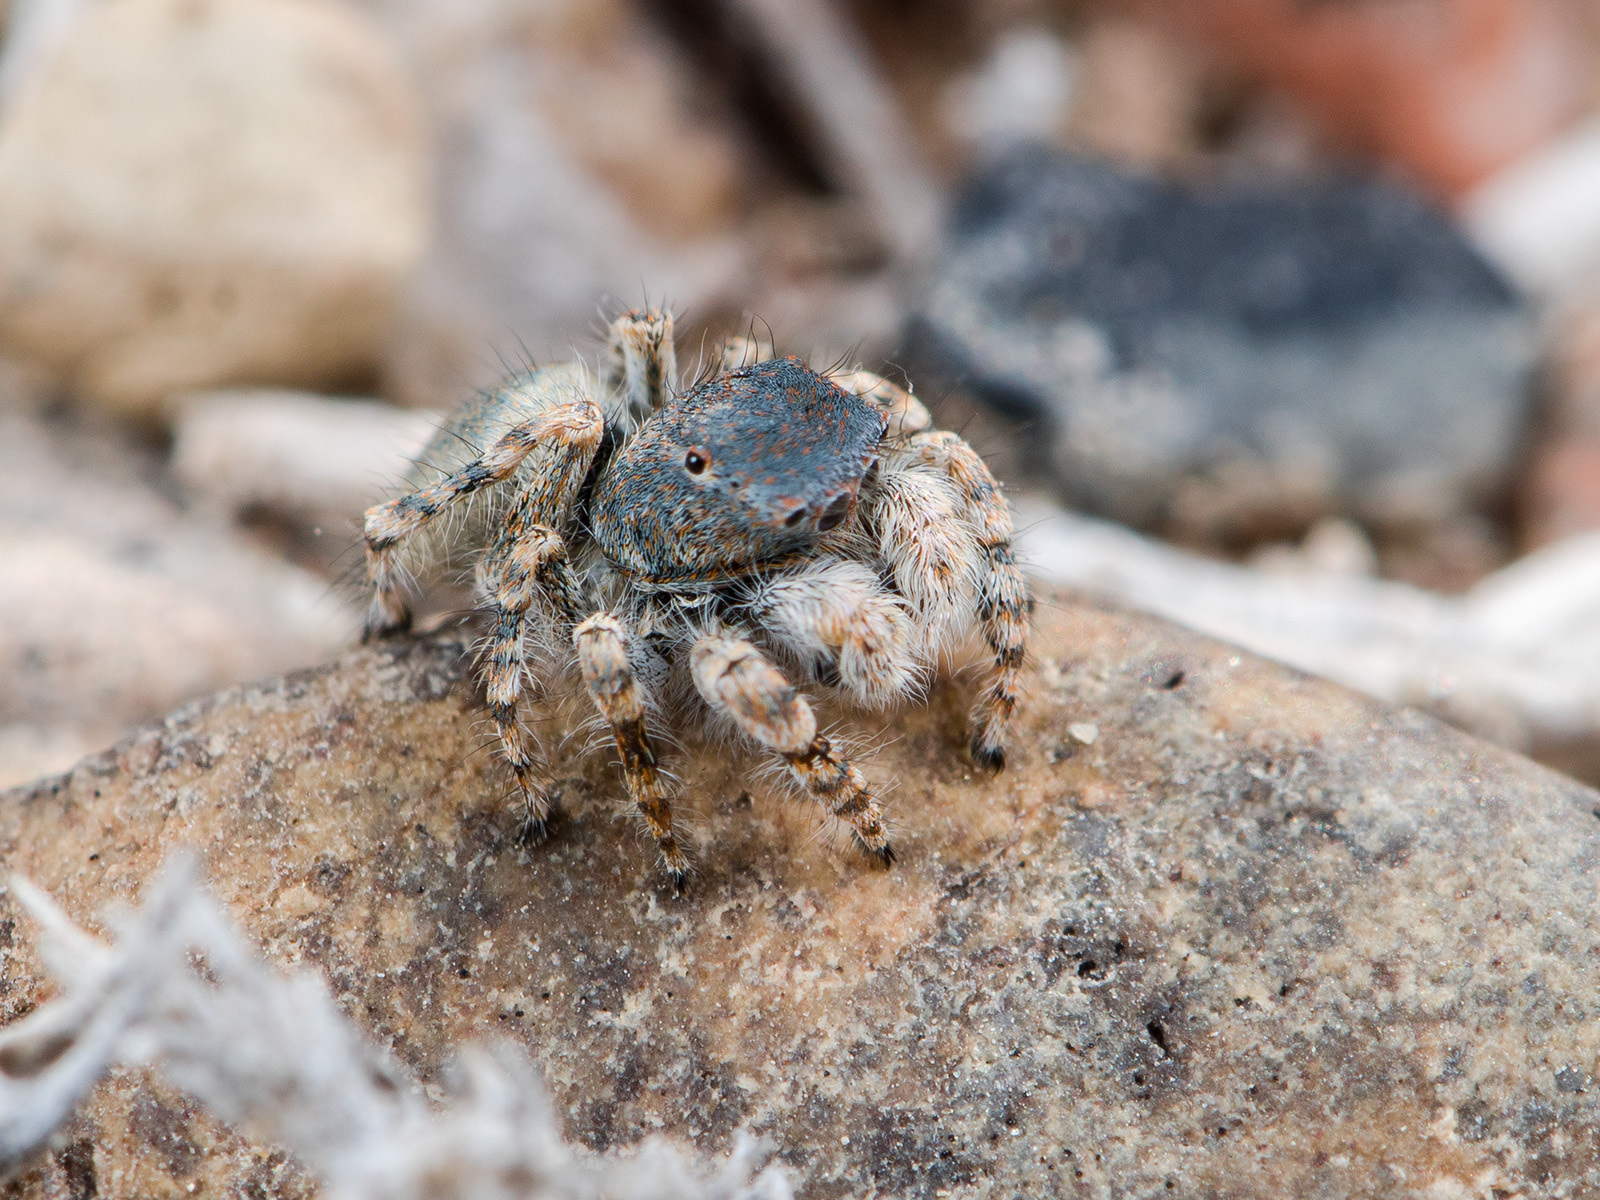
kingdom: Animalia
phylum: Arthropoda
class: Arachnida
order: Araneae
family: Salticidae
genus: Yllenus
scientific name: Yllenus zyuzini
